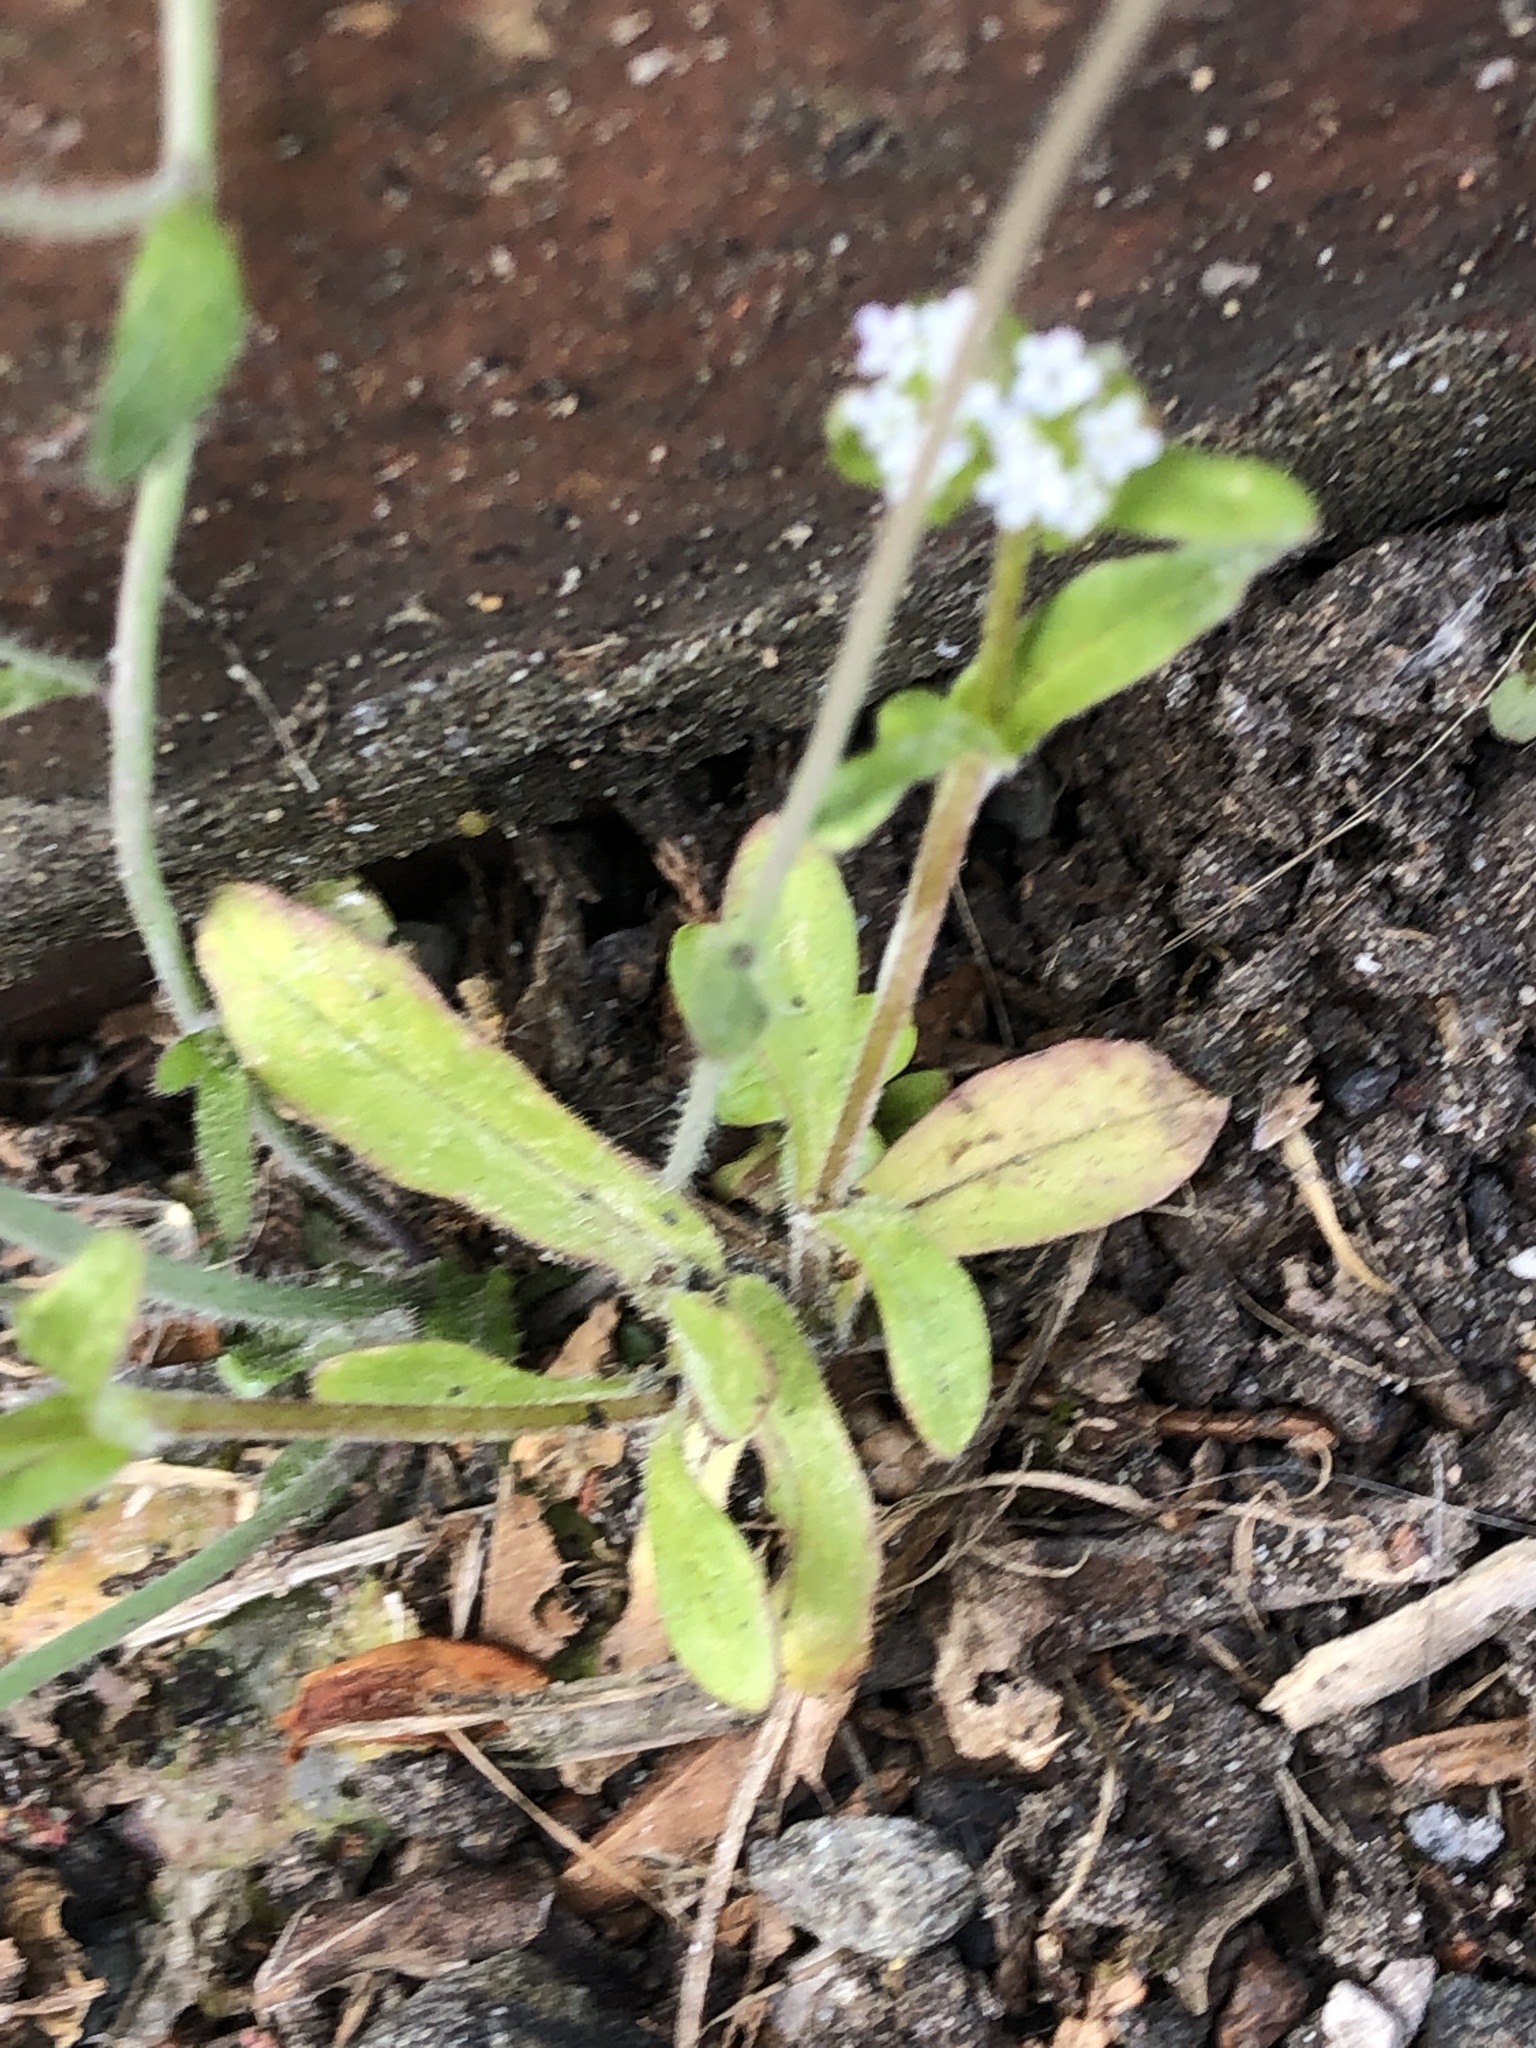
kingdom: Plantae
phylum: Tracheophyta
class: Magnoliopsida
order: Brassicales
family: Brassicaceae
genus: Arabidopsis
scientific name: Arabidopsis thaliana
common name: Thale cress
